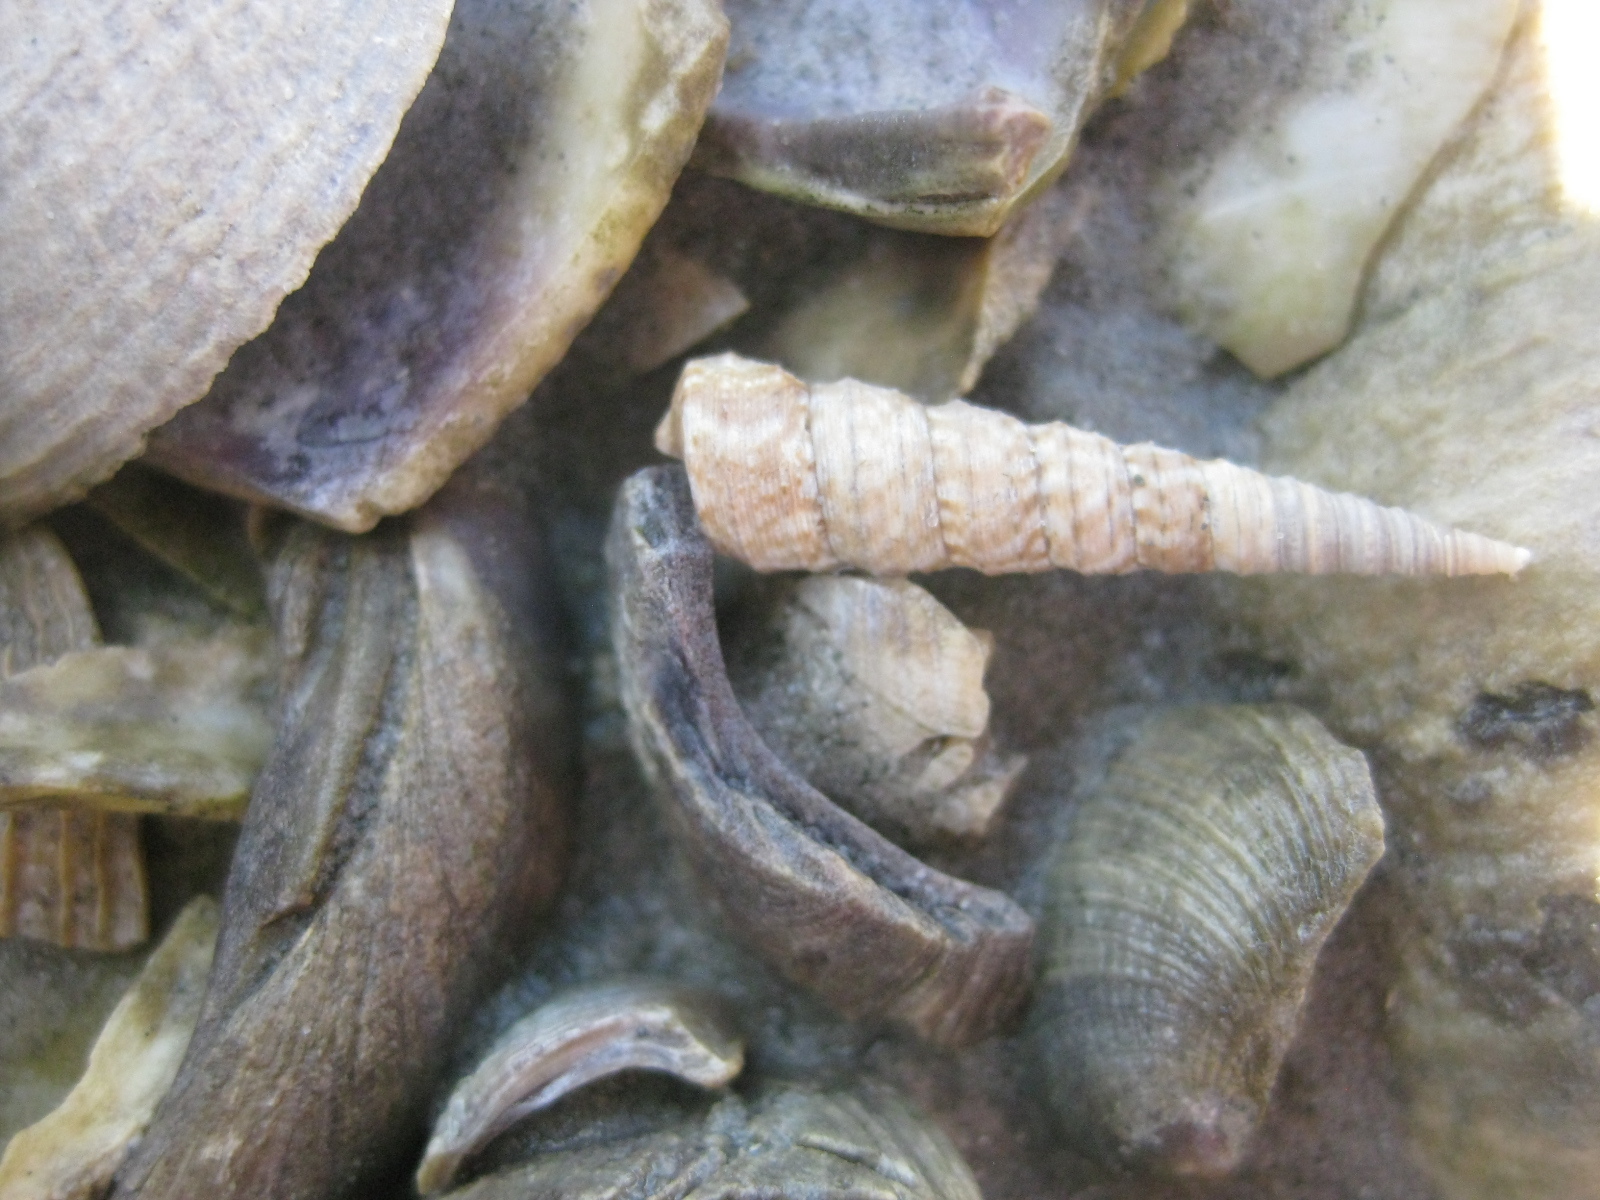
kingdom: Animalia
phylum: Mollusca
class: Gastropoda
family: Turritellidae
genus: Stiracolpus
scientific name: Stiracolpus pagoda
